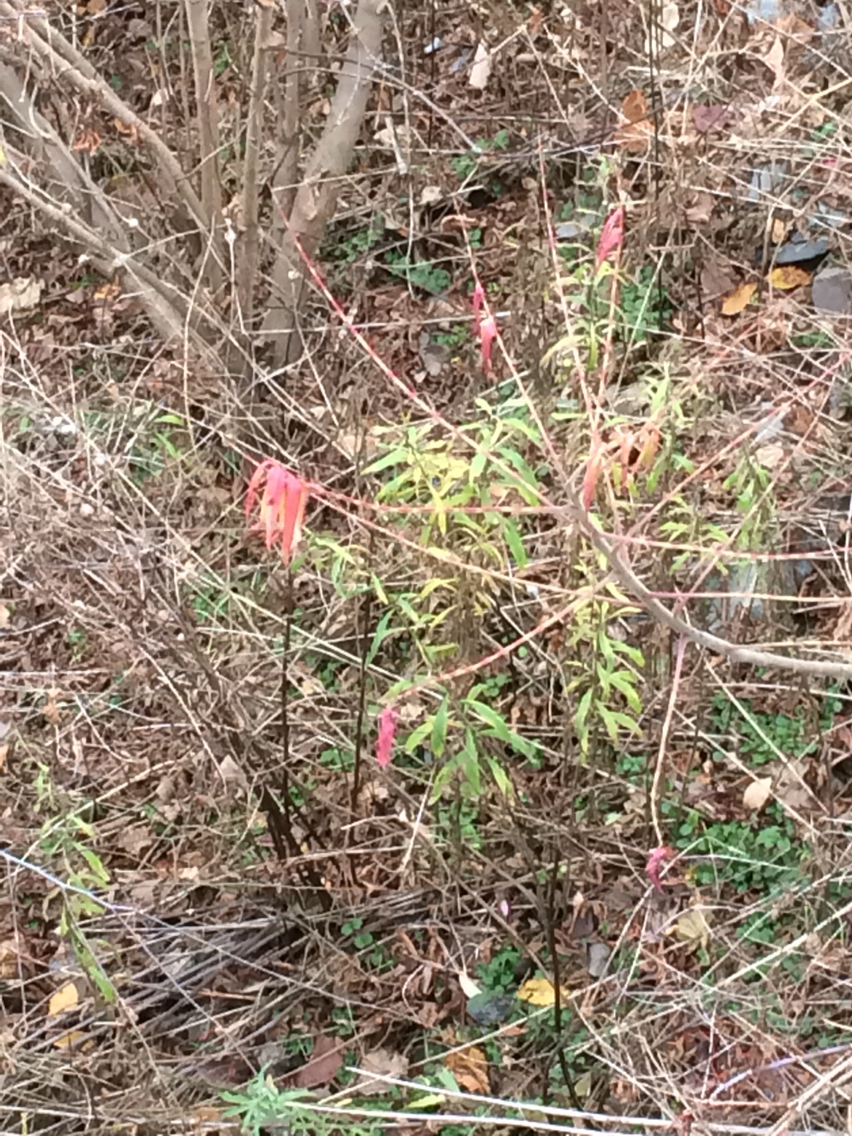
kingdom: Plantae
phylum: Tracheophyta
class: Magnoliopsida
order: Sapindales
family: Anacardiaceae
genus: Rhus
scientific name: Rhus typhina
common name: Staghorn sumac
